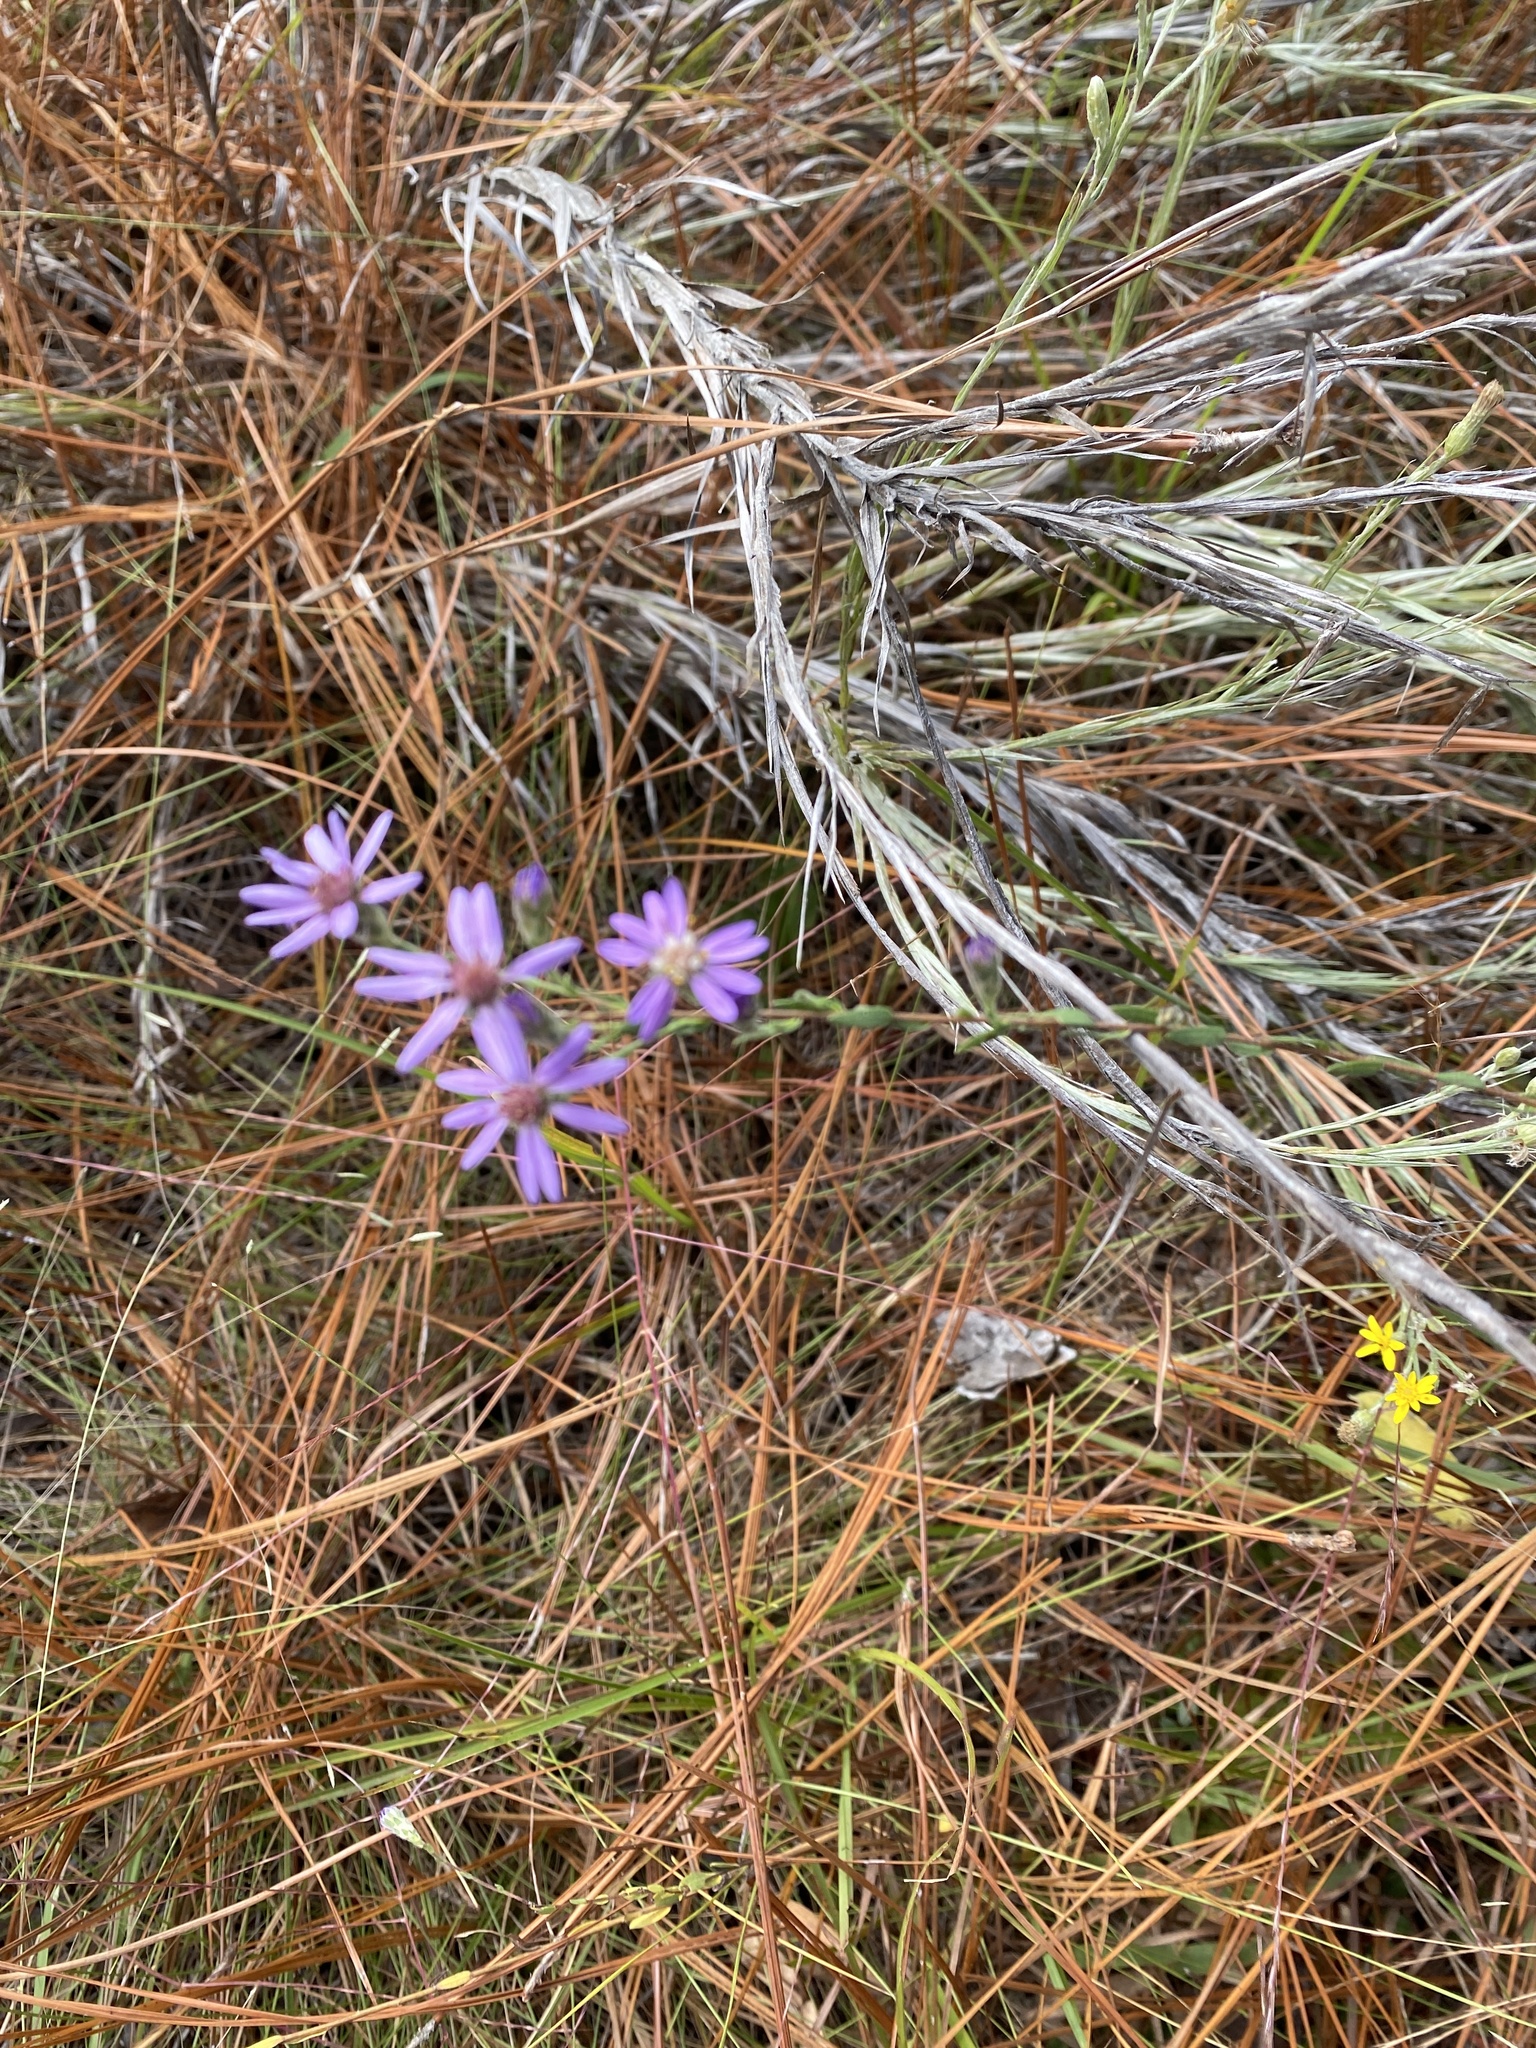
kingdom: Plantae
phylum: Tracheophyta
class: Magnoliopsida
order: Asterales
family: Asteraceae
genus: Symphyotrichum
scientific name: Symphyotrichum concolor
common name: Eastern silver aster
